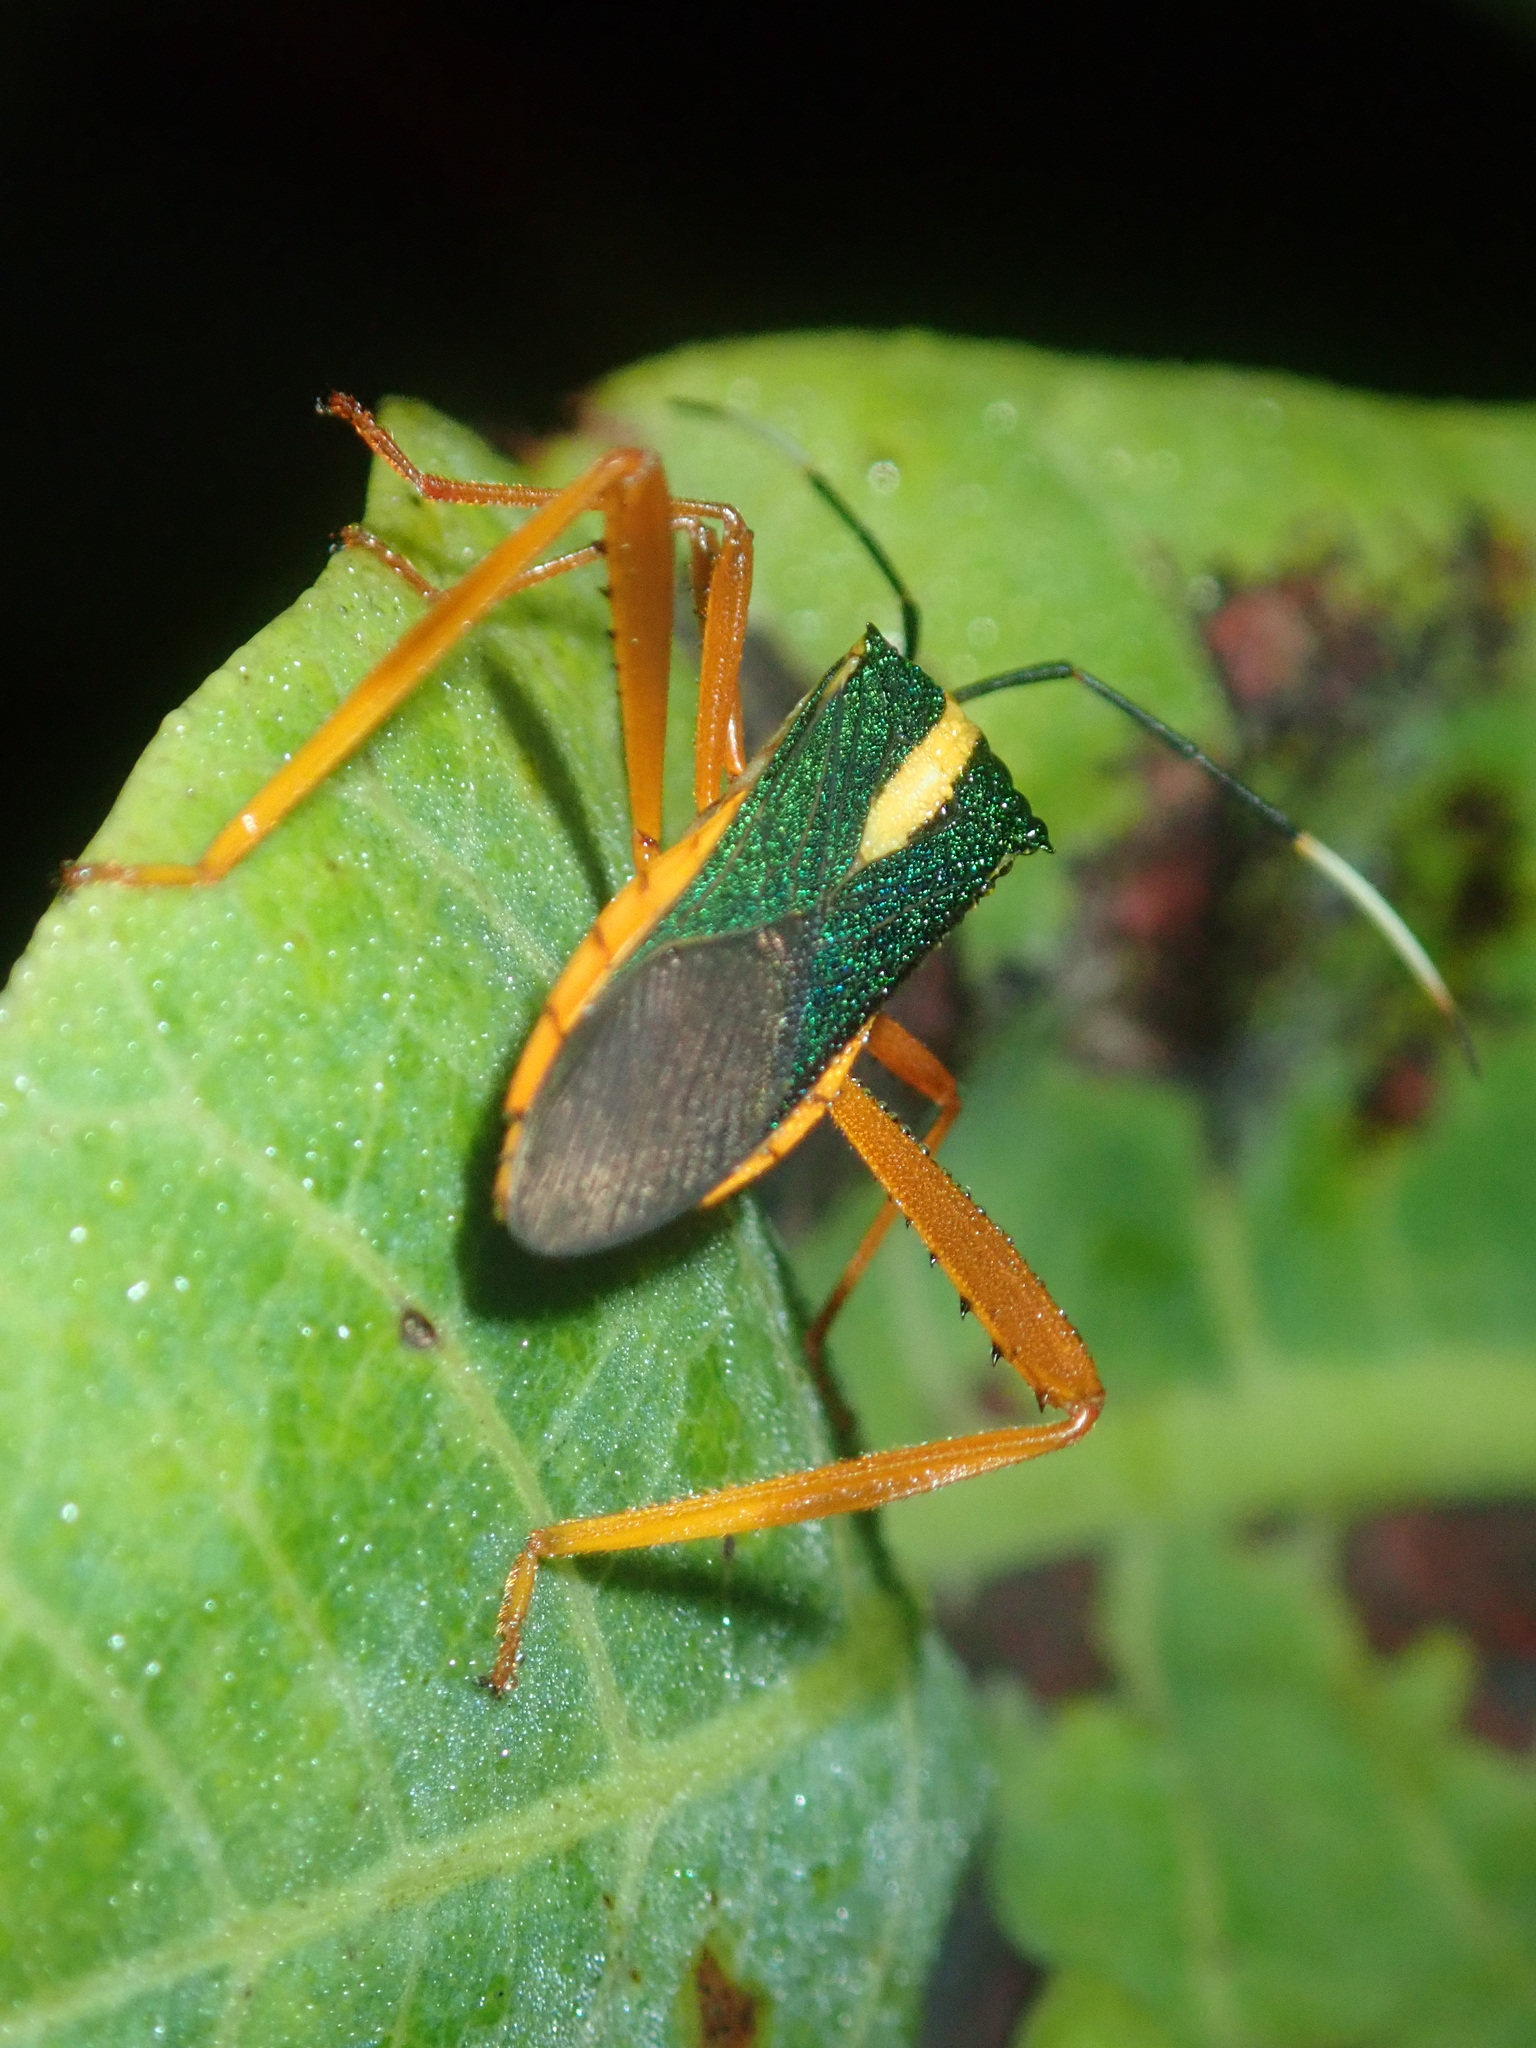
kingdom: Animalia
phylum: Arthropoda
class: Insecta
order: Hemiptera
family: Coreidae
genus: Lucullia
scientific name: Lucullia flavovittata
